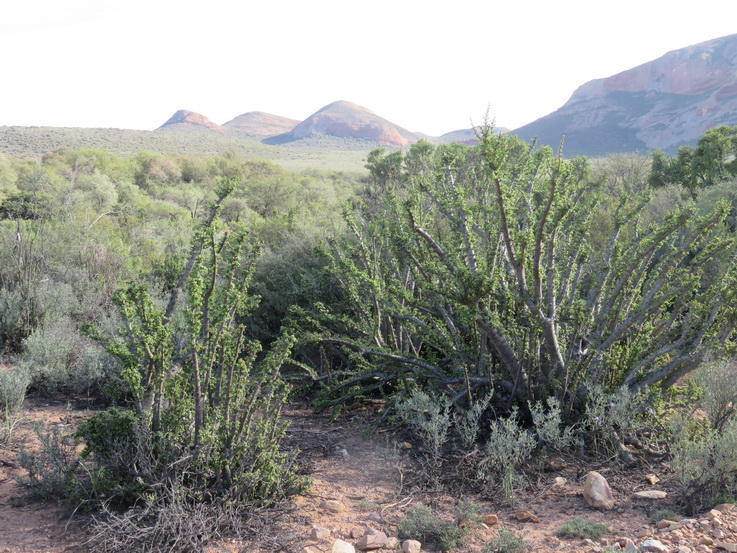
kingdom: Plantae
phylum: Tracheophyta
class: Magnoliopsida
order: Caryophyllales
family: Didiereaceae
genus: Portulacaria
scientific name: Portulacaria afra
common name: Elephant-bush
